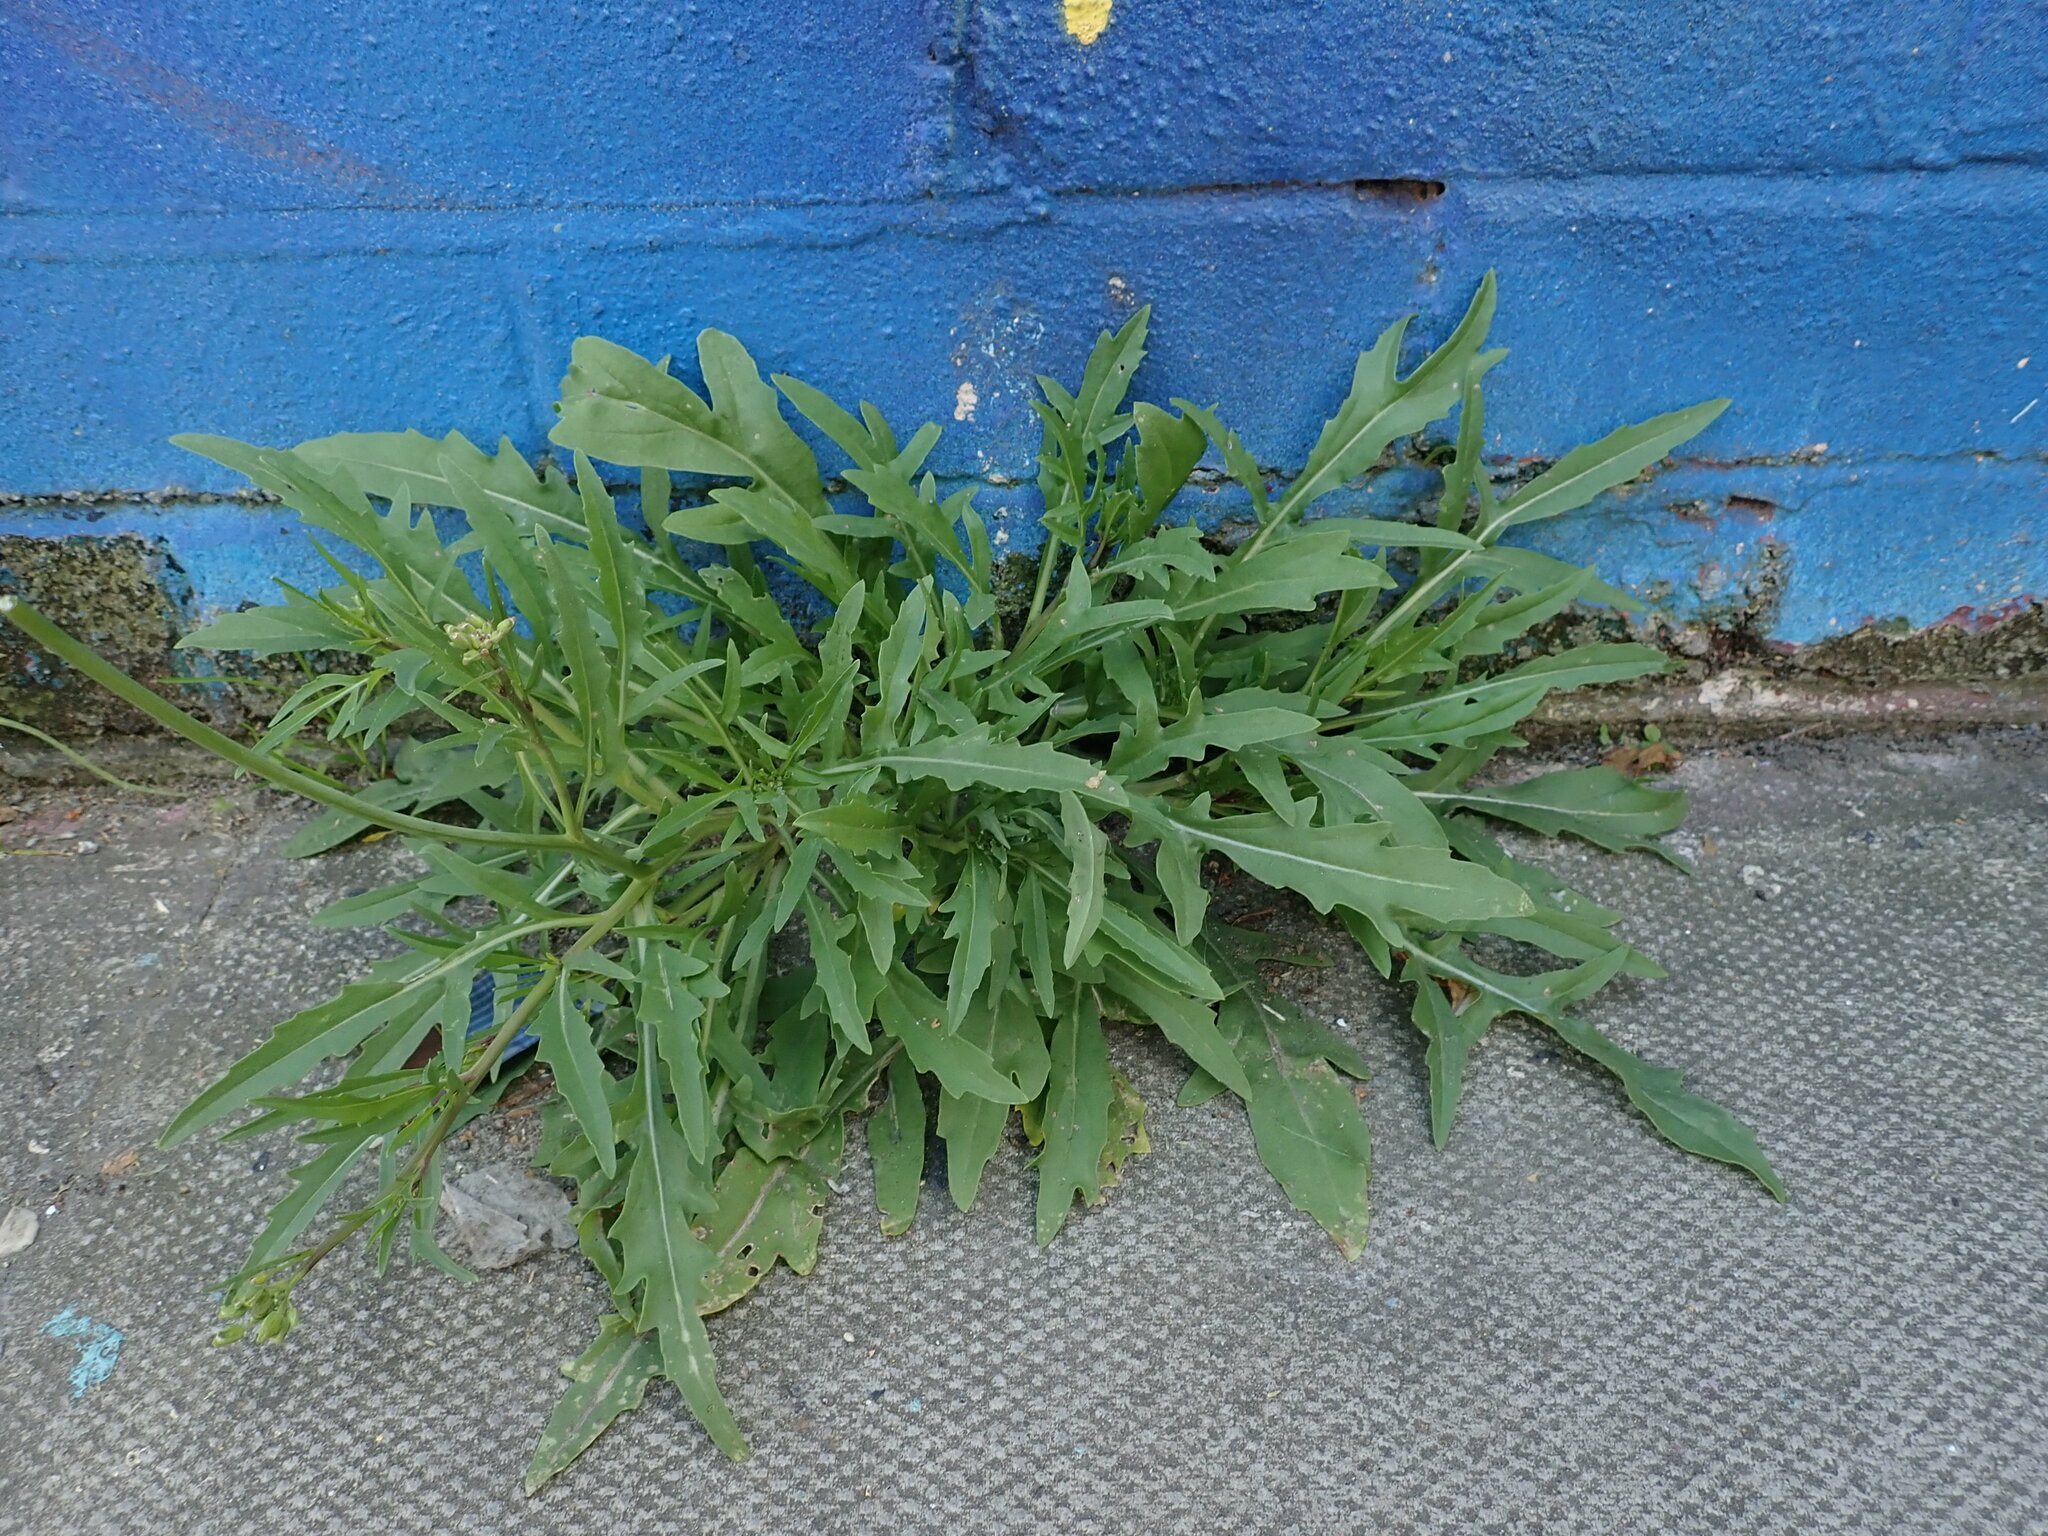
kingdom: Plantae
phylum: Tracheophyta
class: Magnoliopsida
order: Brassicales
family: Brassicaceae
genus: Diplotaxis
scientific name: Diplotaxis tenuifolia
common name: Perennial wall-rocket
